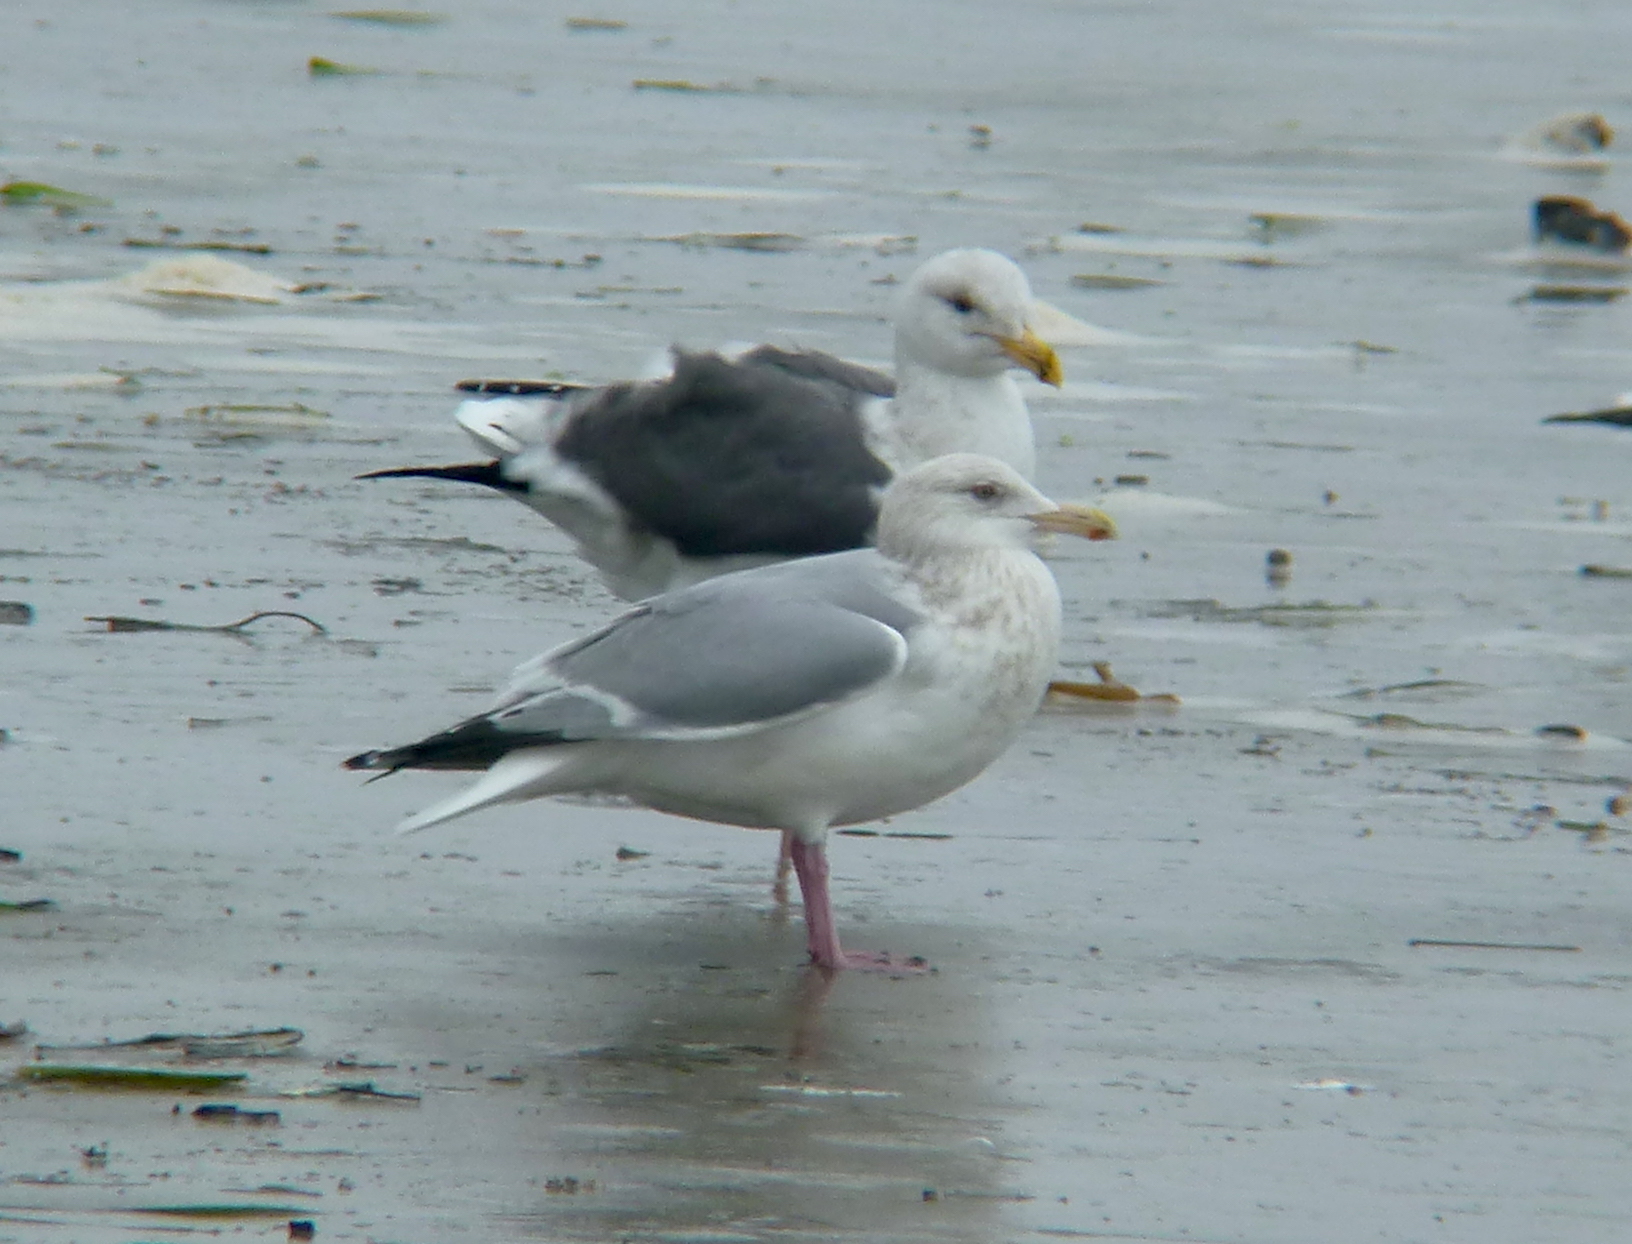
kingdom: Animalia
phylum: Chordata
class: Aves
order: Charadriiformes
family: Laridae
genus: Larus
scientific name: Larus argentatus
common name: Herring gull
